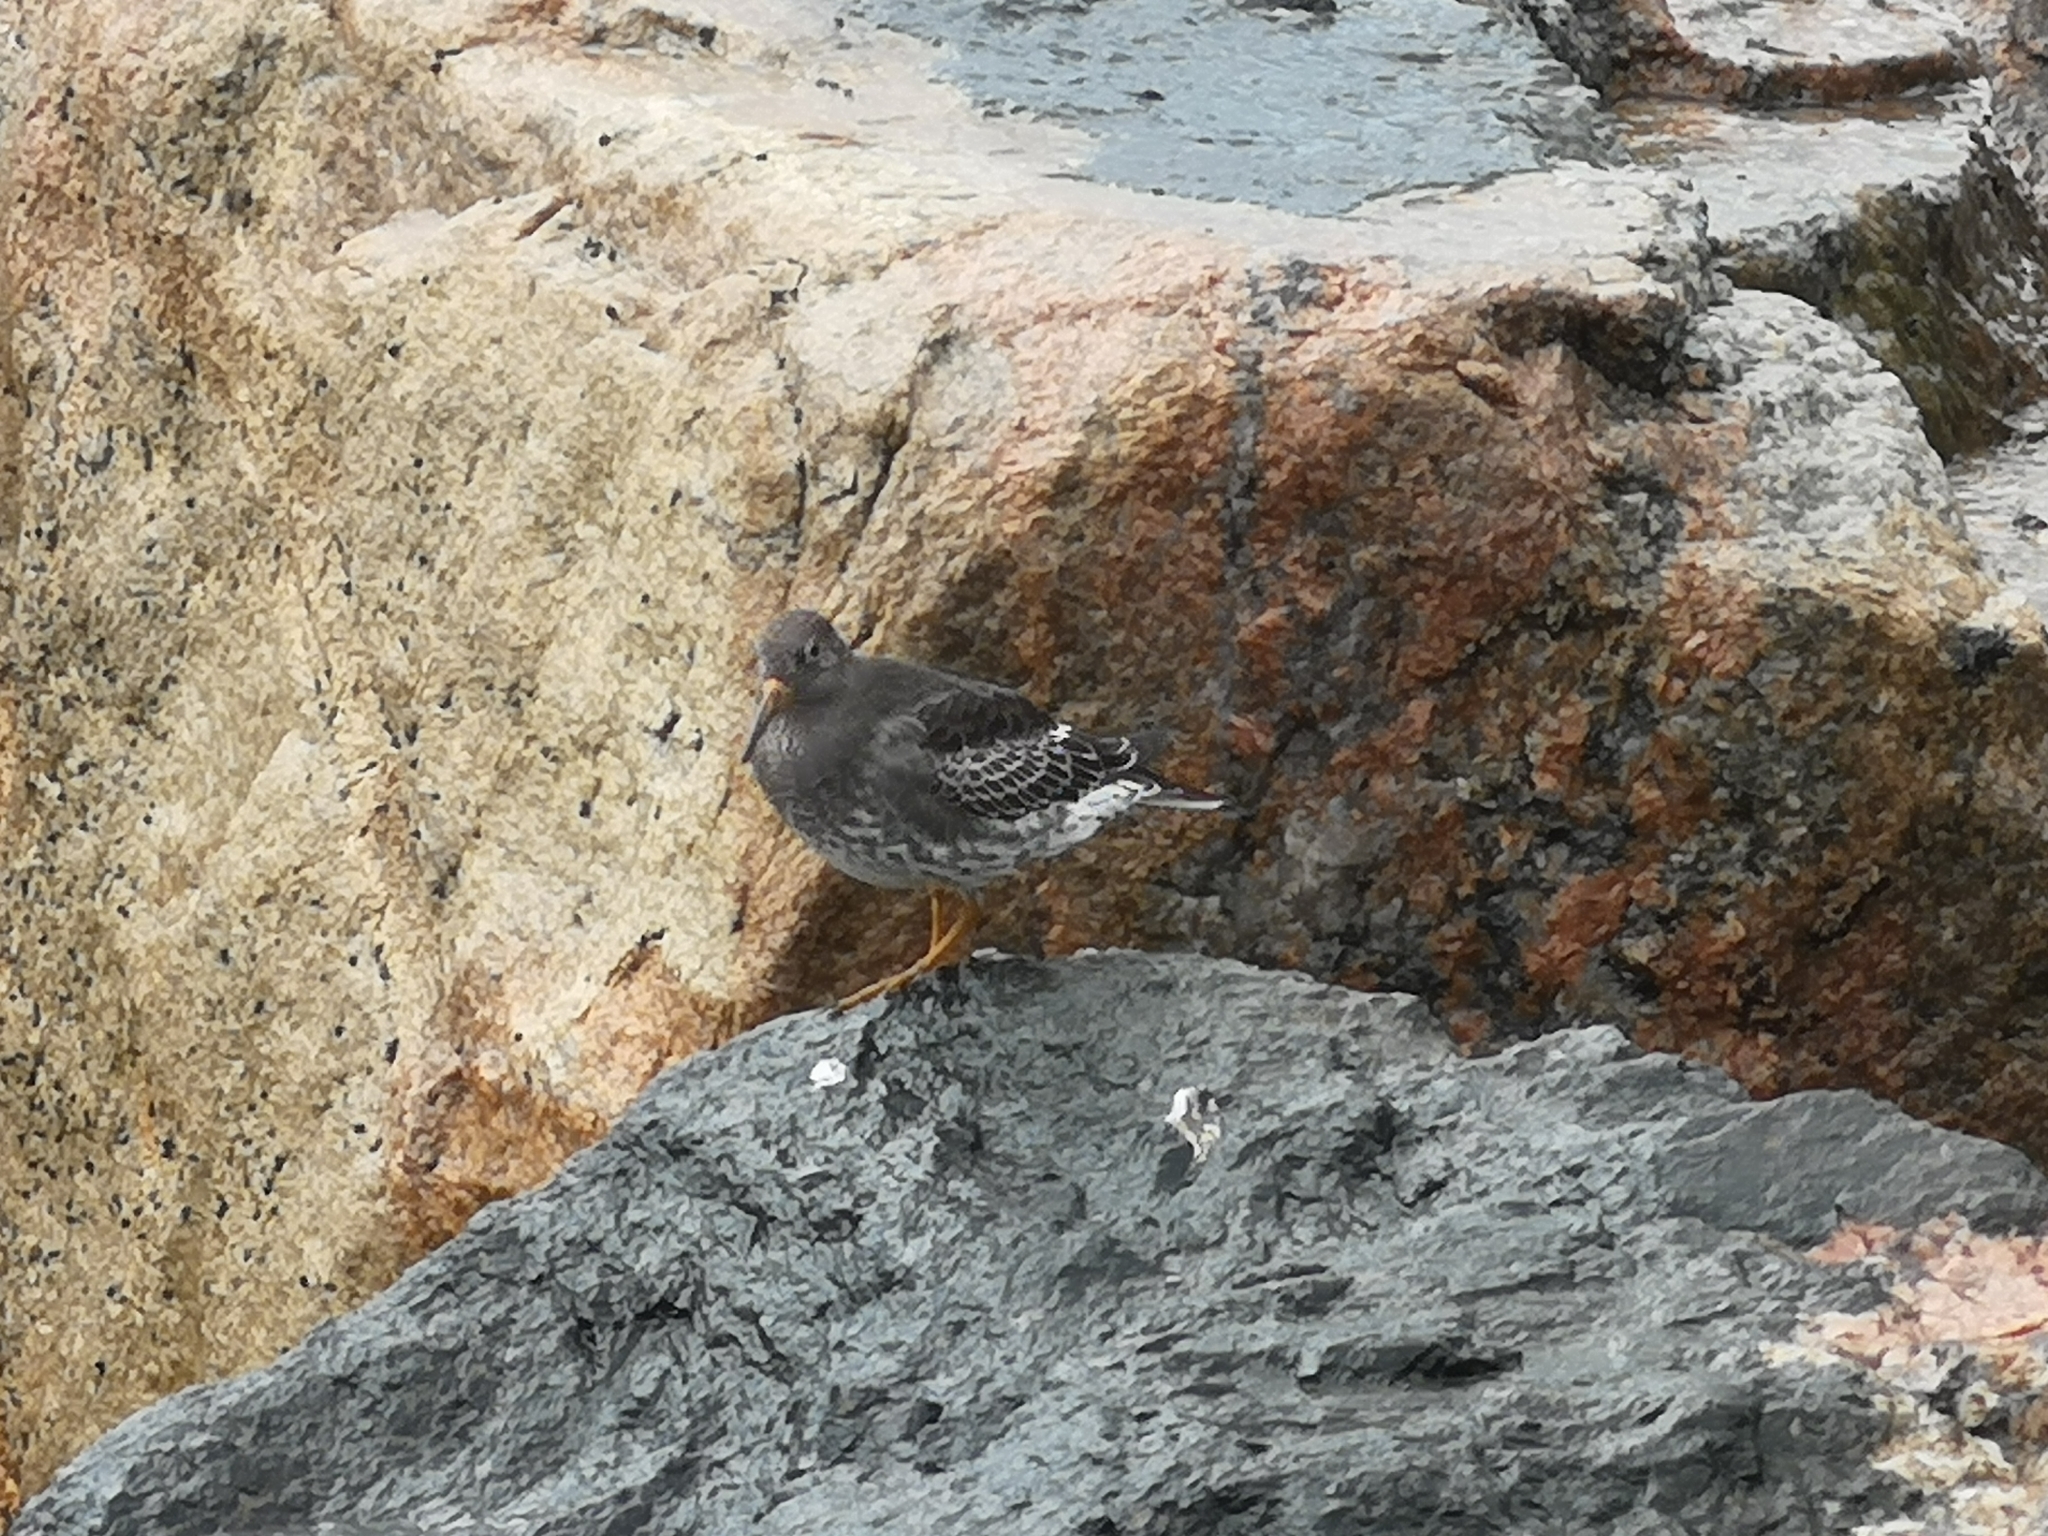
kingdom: Animalia
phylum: Chordata
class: Aves
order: Charadriiformes
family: Scolopacidae
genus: Calidris
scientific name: Calidris maritima
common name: Purple sandpiper
